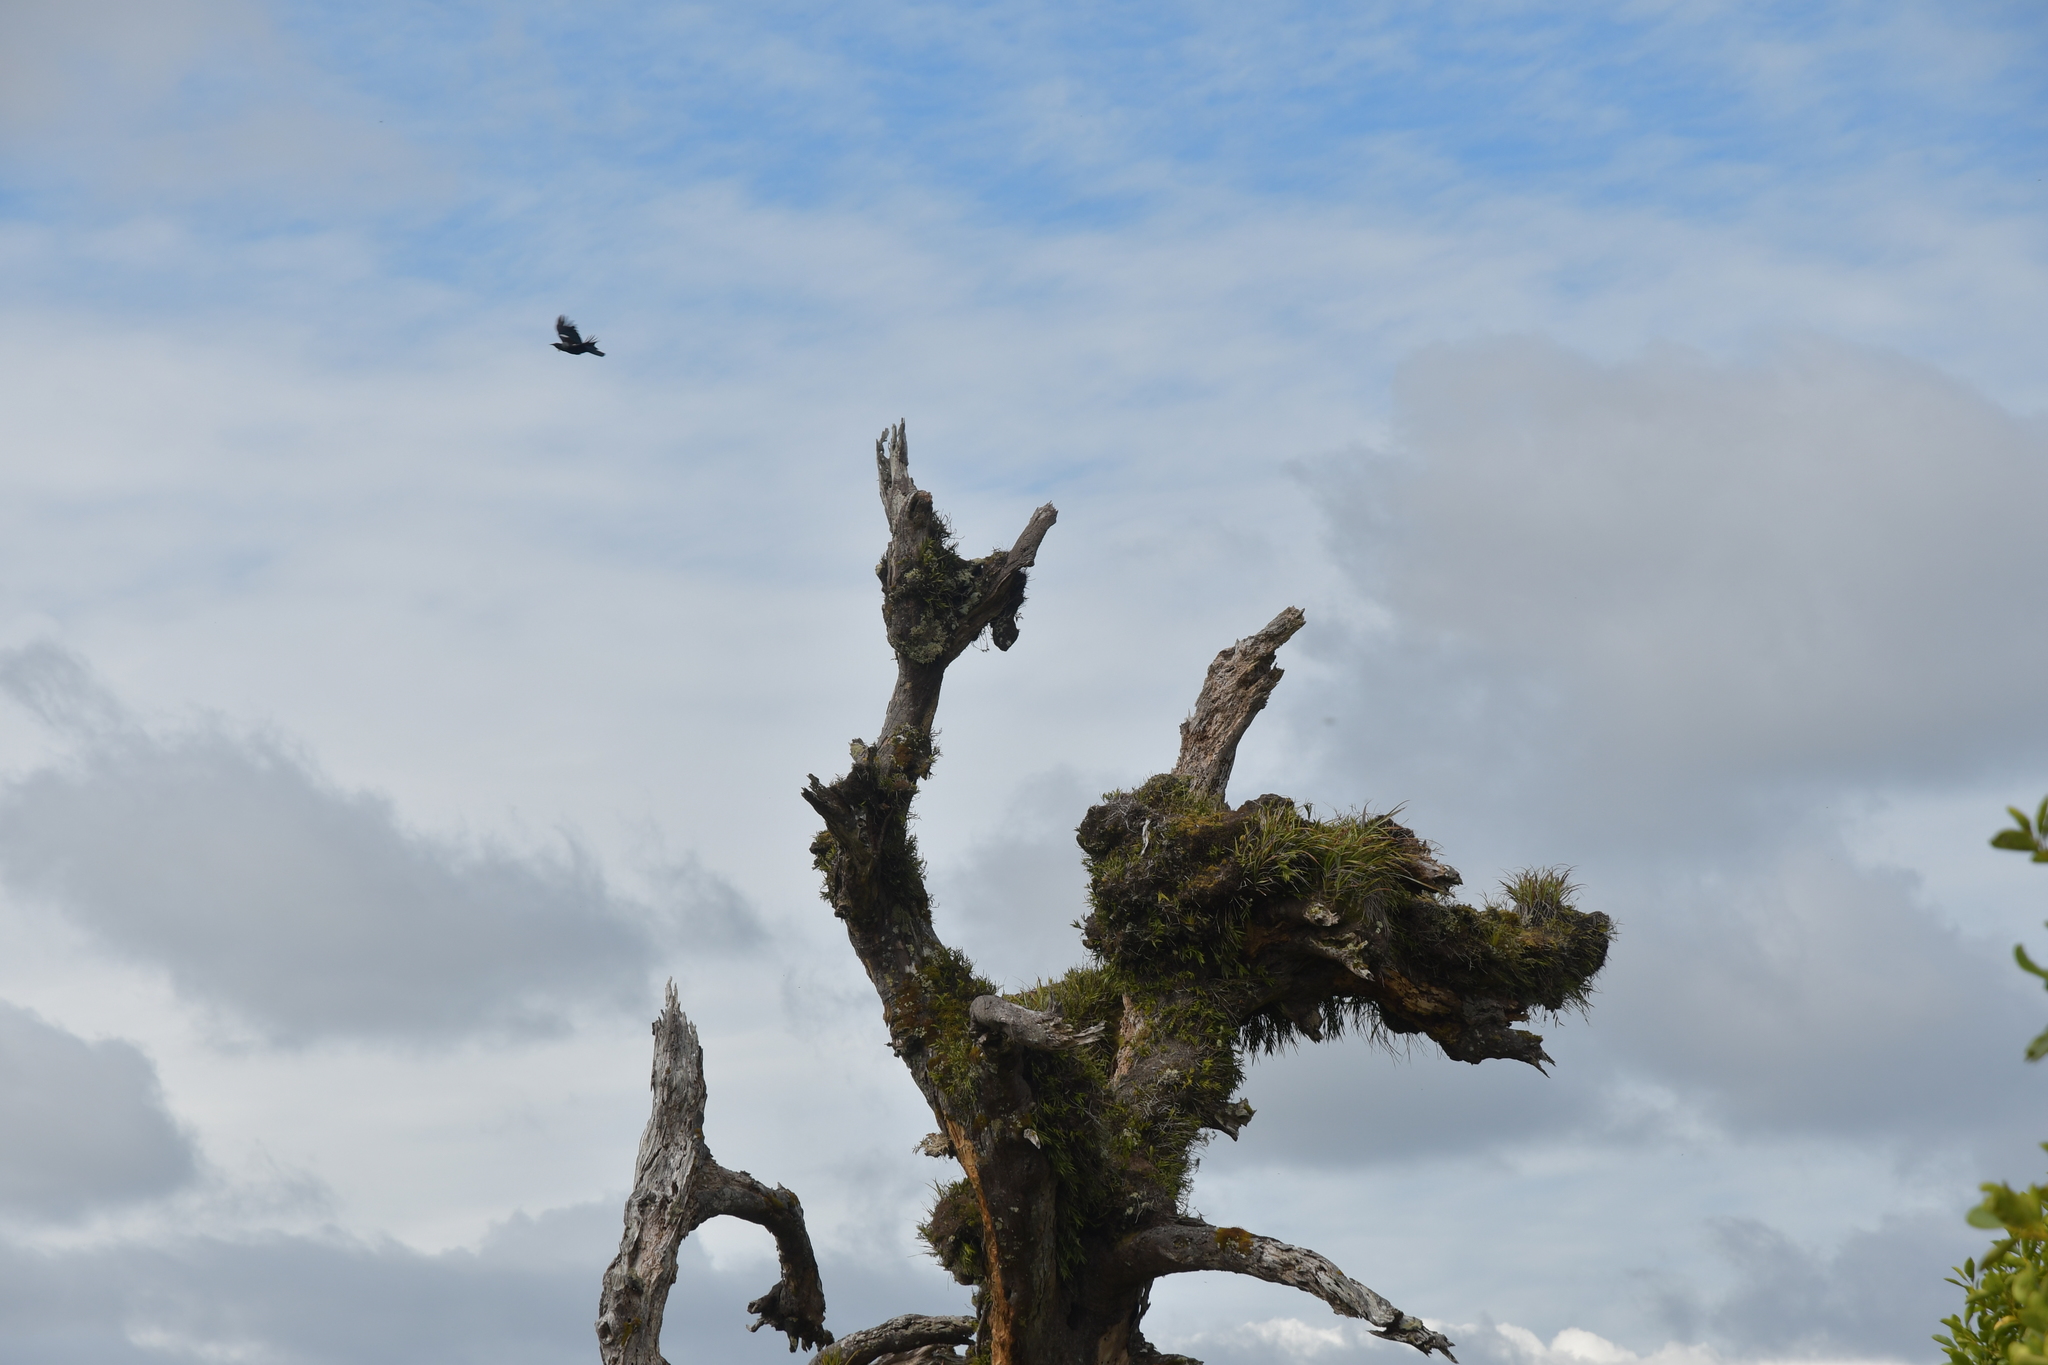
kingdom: Animalia
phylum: Chordata
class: Aves
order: Passeriformes
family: Meliphagidae
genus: Prosthemadera
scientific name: Prosthemadera novaeseelandiae
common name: Tui
